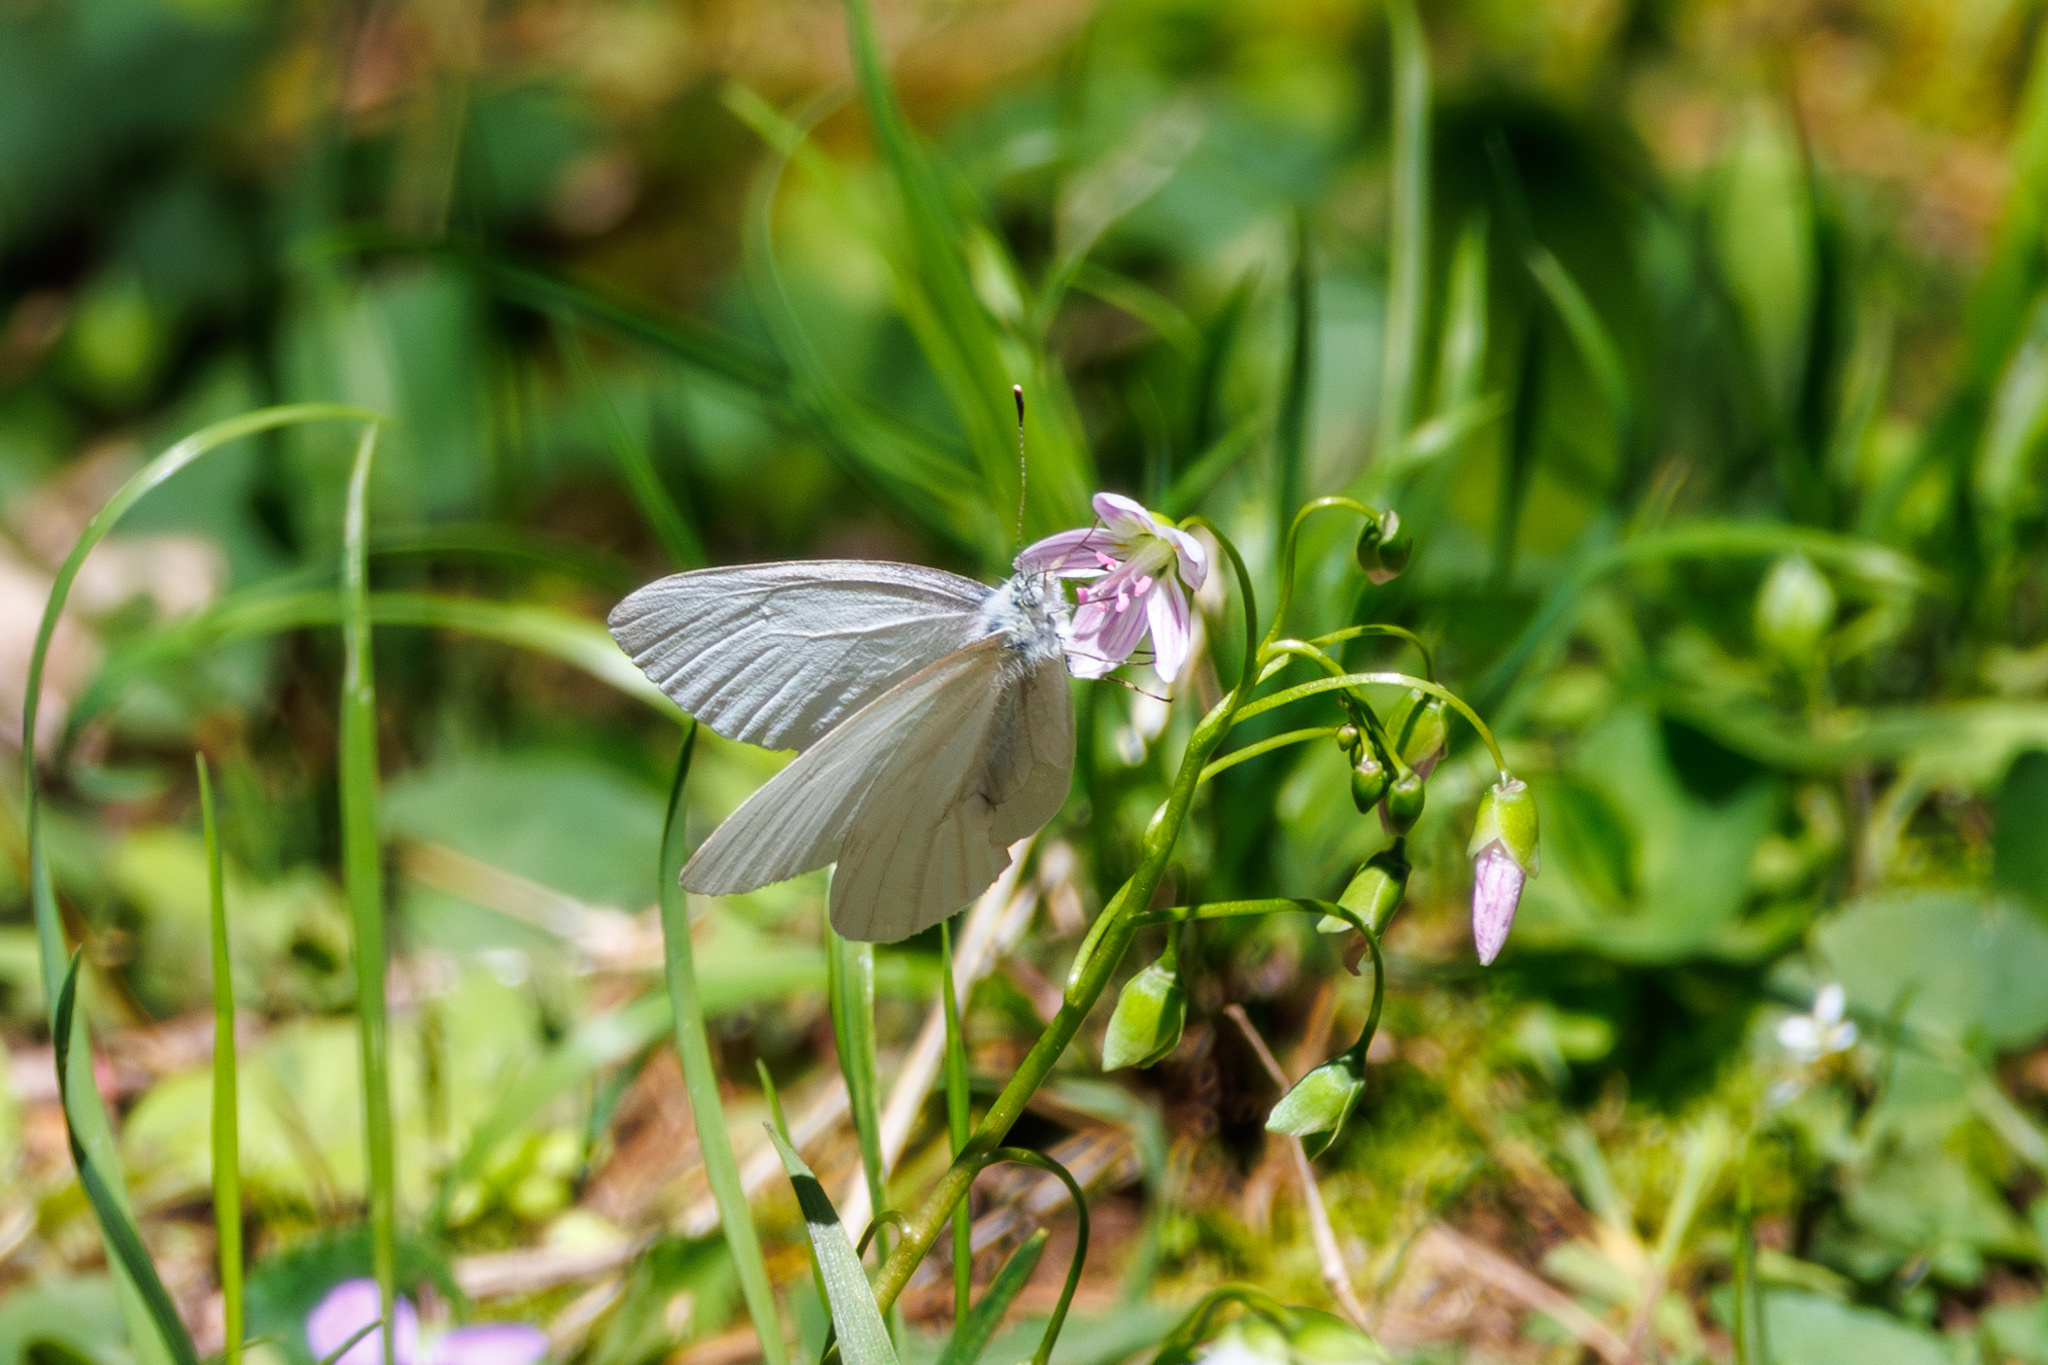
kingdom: Animalia
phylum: Arthropoda
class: Insecta
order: Lepidoptera
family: Pieridae
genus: Pieris
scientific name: Pieris virginiensis
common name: West virginia white
